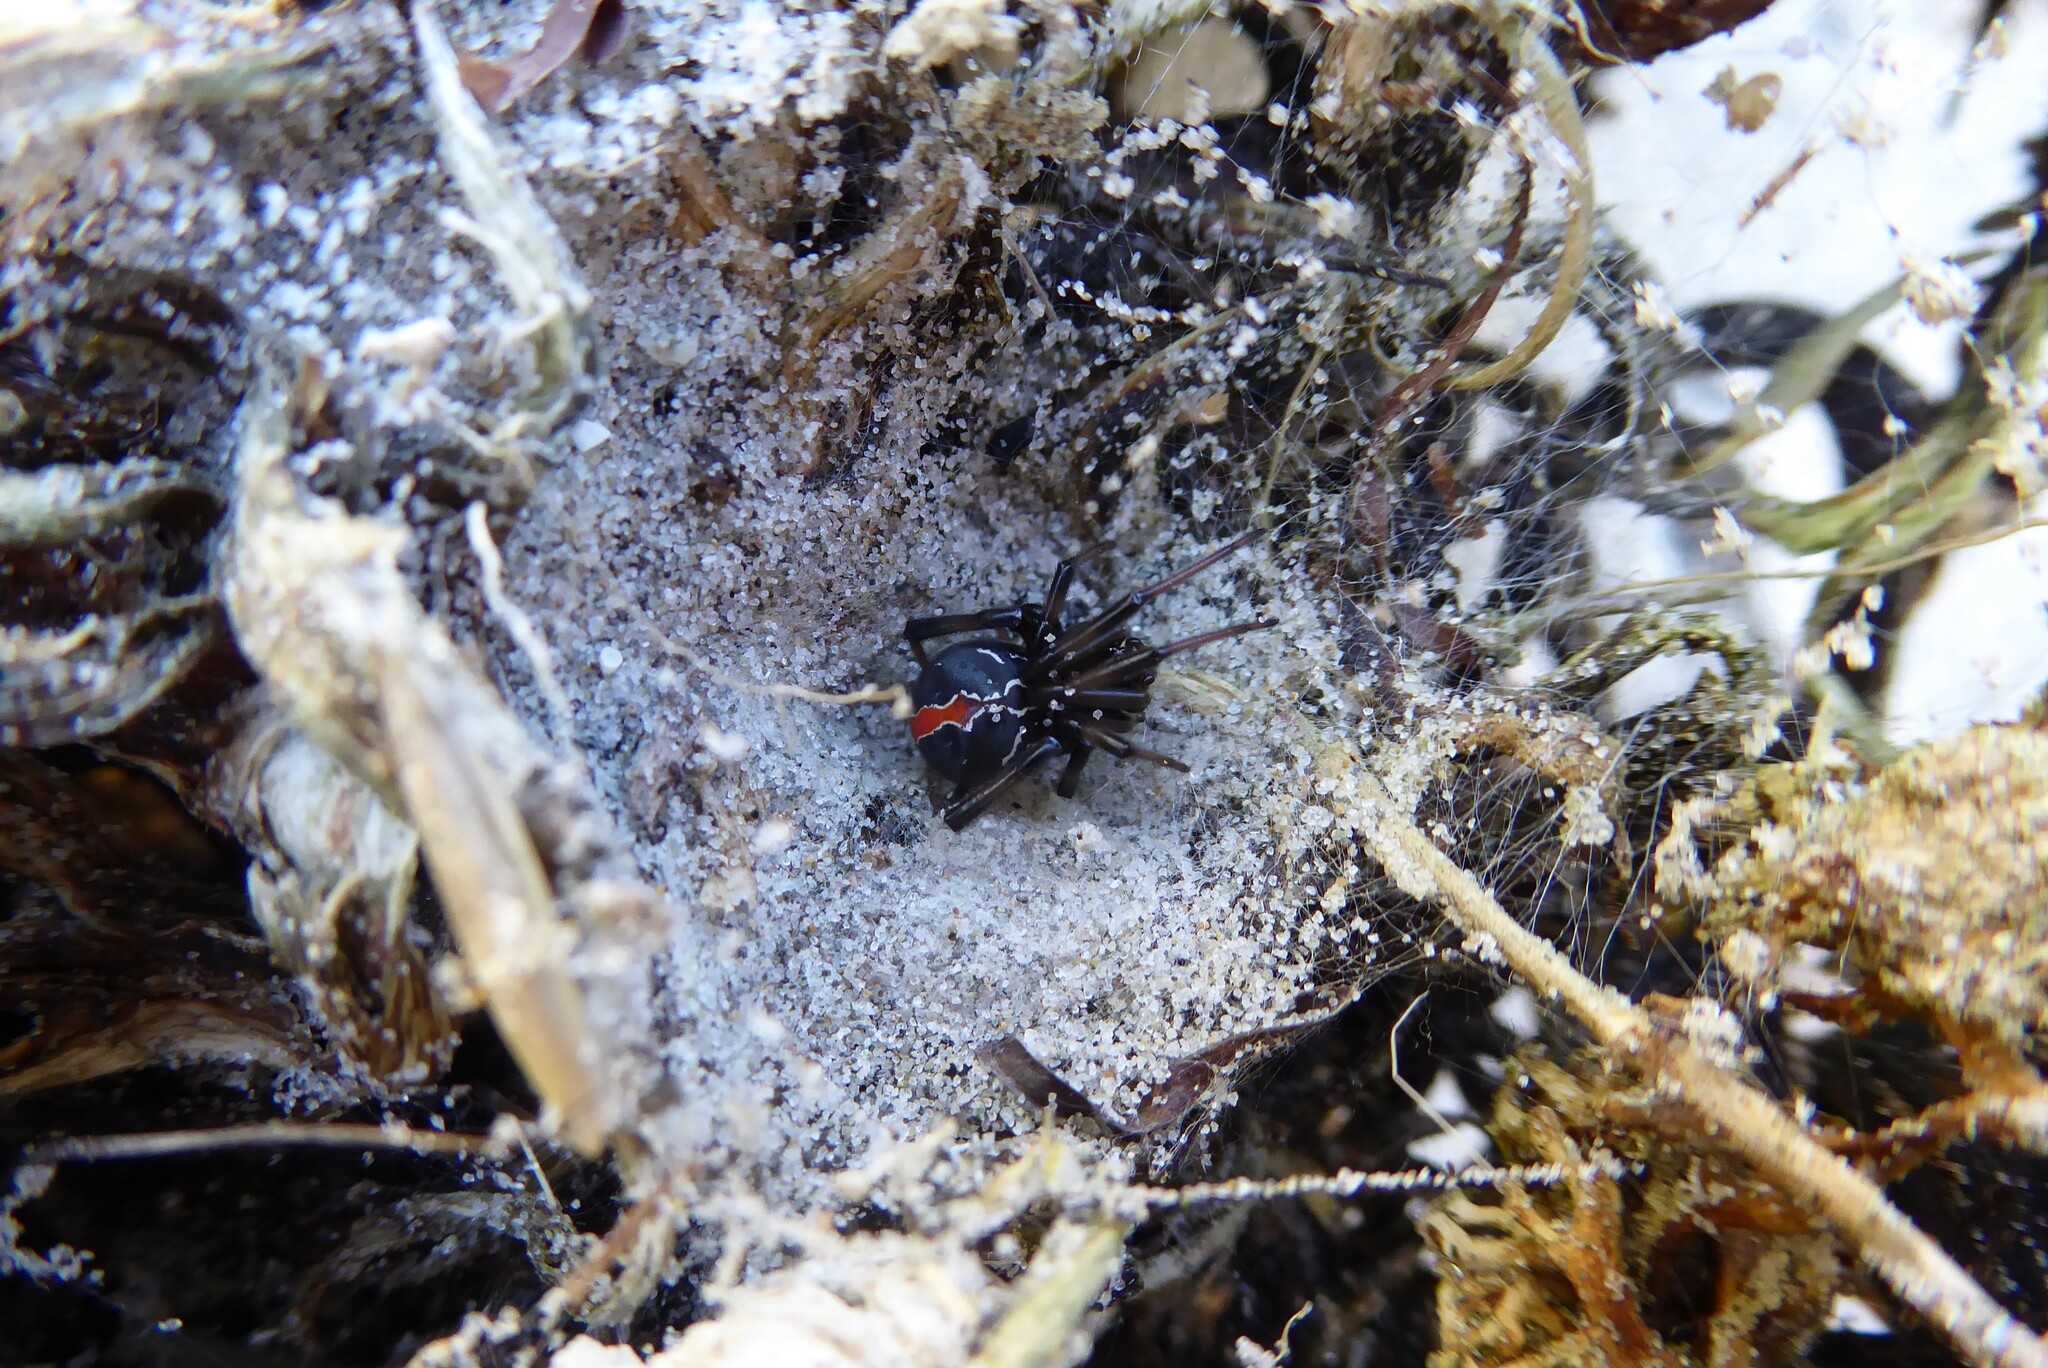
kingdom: Animalia
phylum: Arthropoda
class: Arachnida
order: Araneae
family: Theridiidae
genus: Latrodectus
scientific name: Latrodectus katipo
